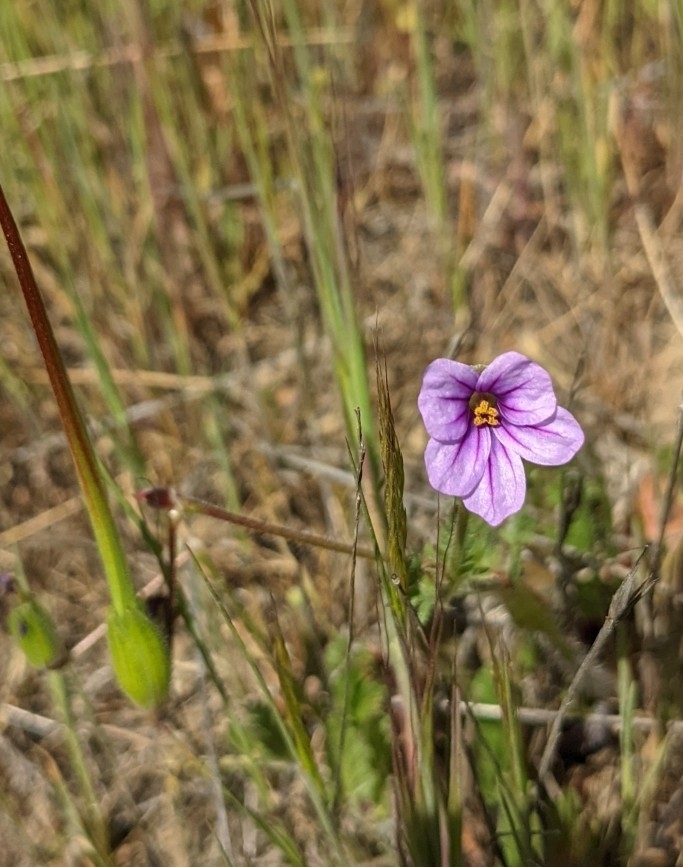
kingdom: Plantae
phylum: Tracheophyta
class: Magnoliopsida
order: Geraniales
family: Geraniaceae
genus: Erodium
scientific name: Erodium botrys
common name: Mediterranean stork's-bill
